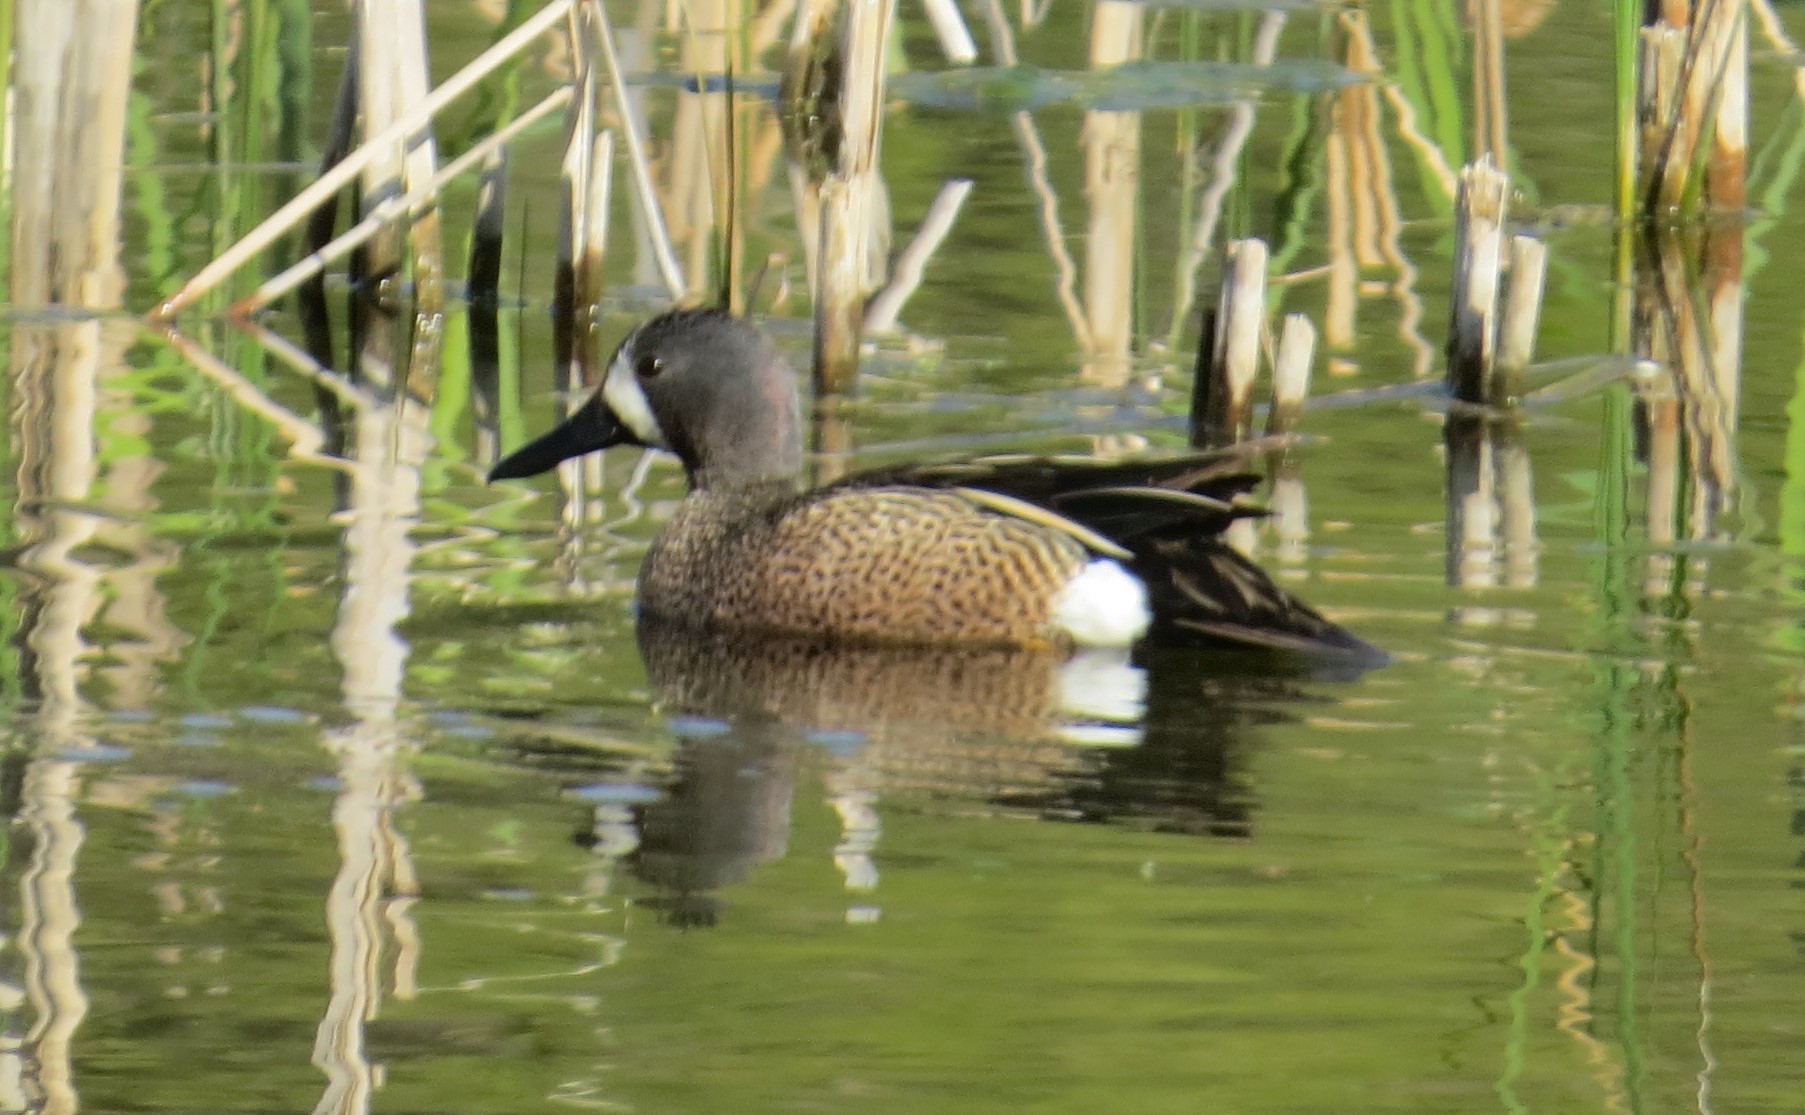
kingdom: Animalia
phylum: Chordata
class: Aves
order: Anseriformes
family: Anatidae
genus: Spatula
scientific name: Spatula discors
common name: Blue-winged teal
